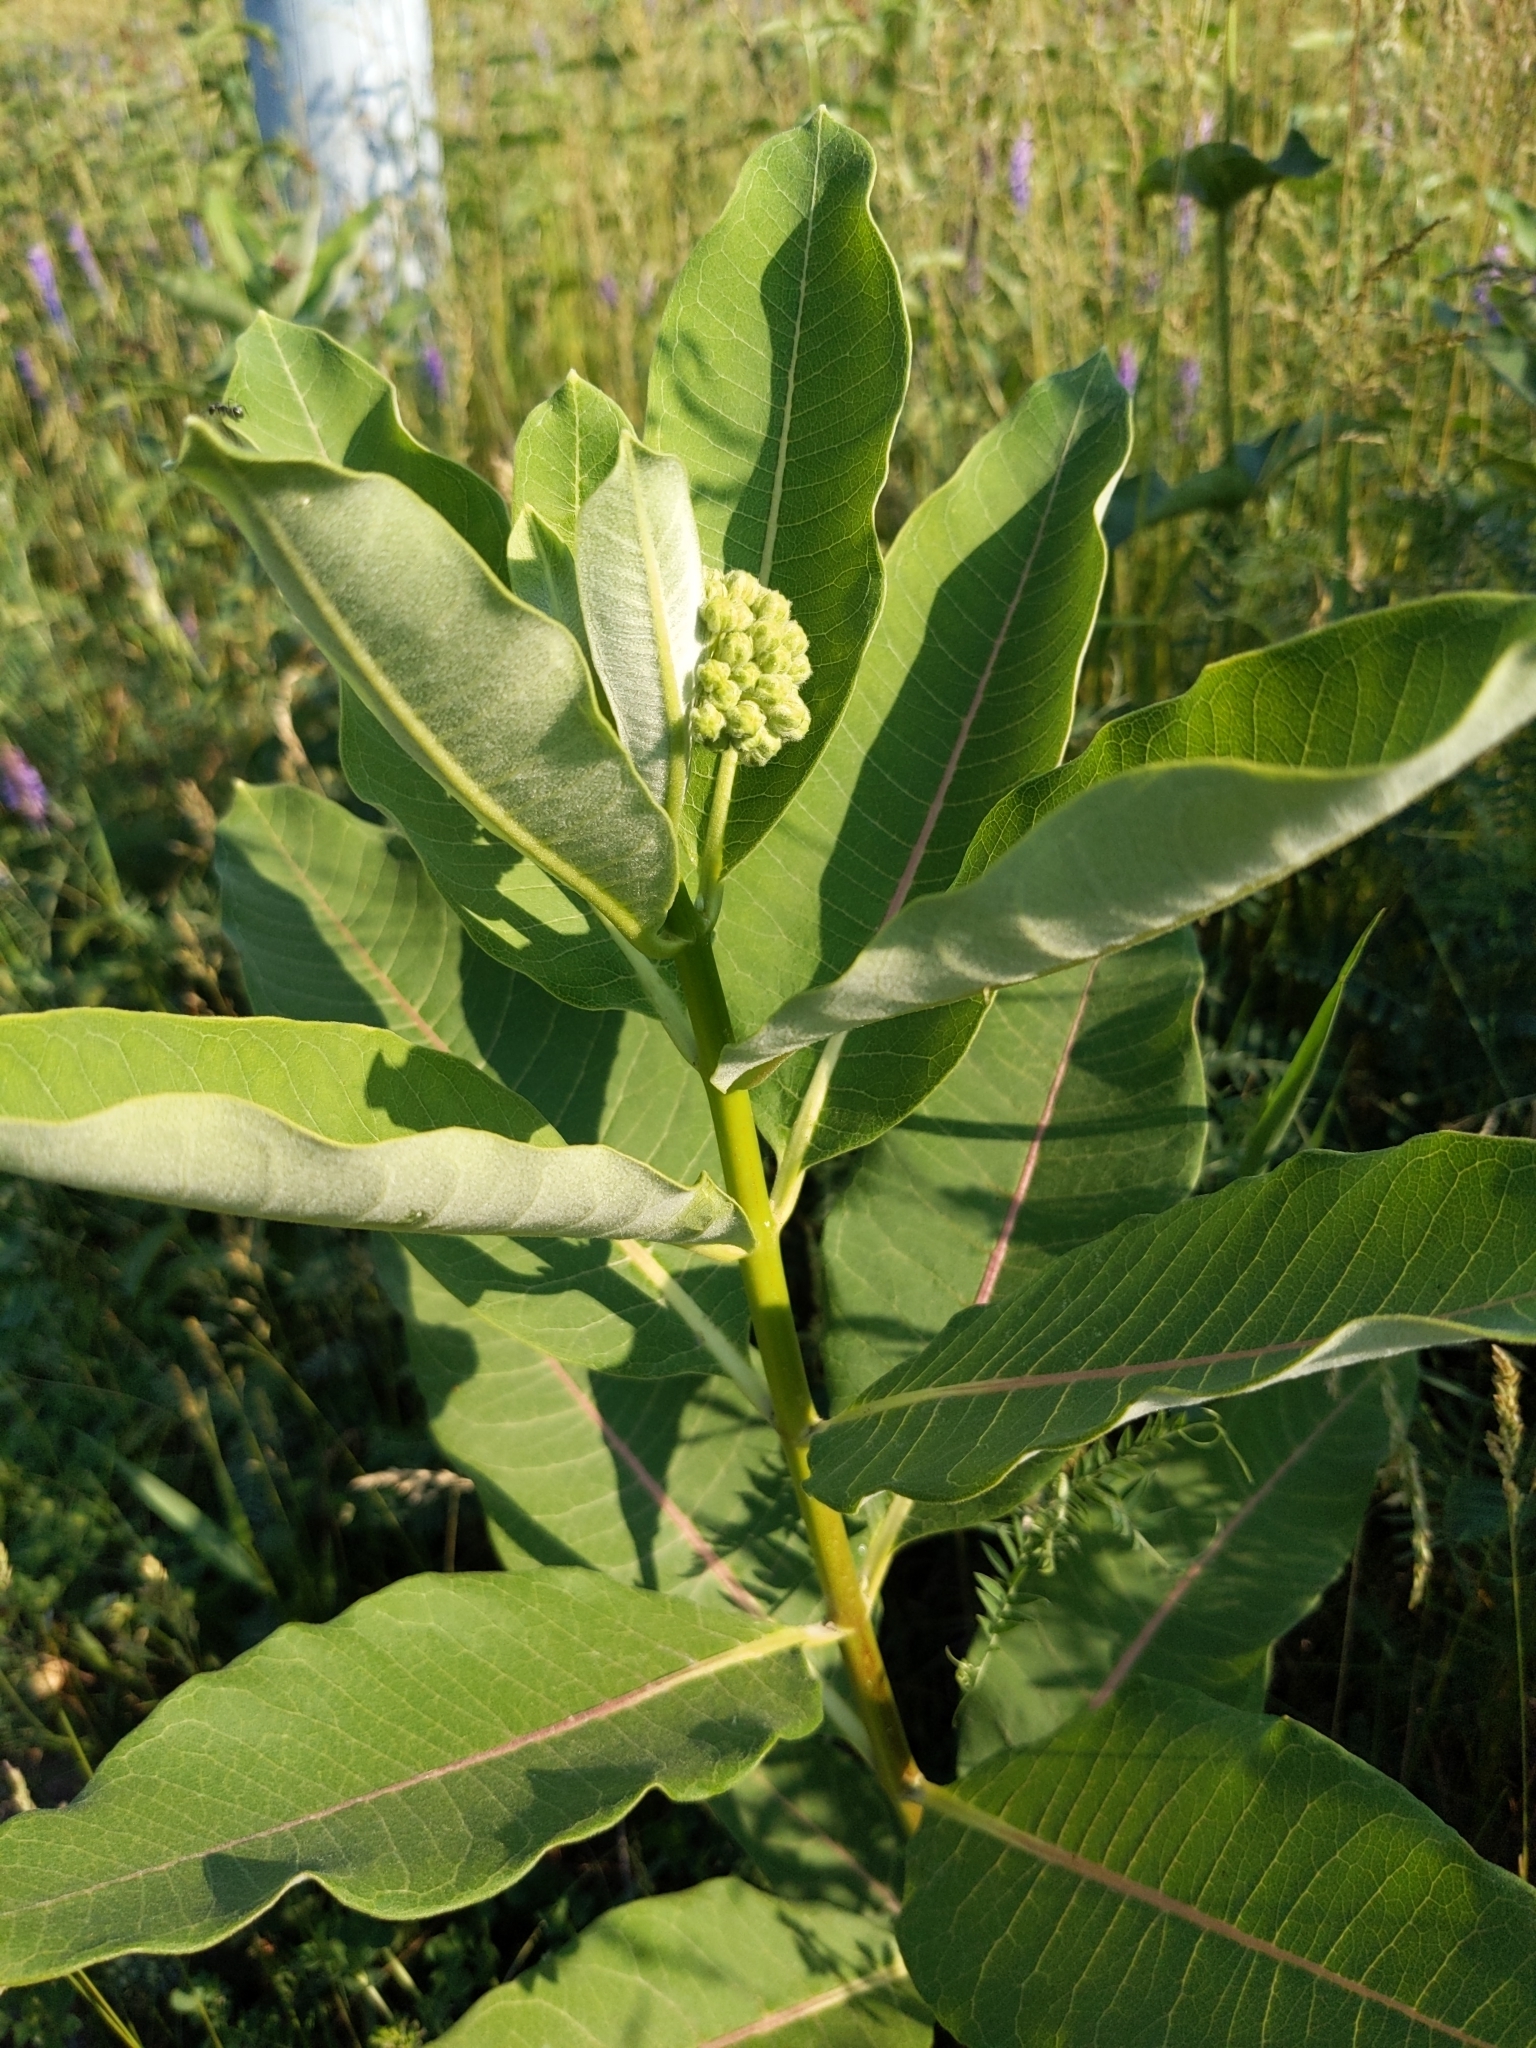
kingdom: Plantae
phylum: Tracheophyta
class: Magnoliopsida
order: Gentianales
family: Apocynaceae
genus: Asclepias
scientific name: Asclepias syriaca
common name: Common milkweed
